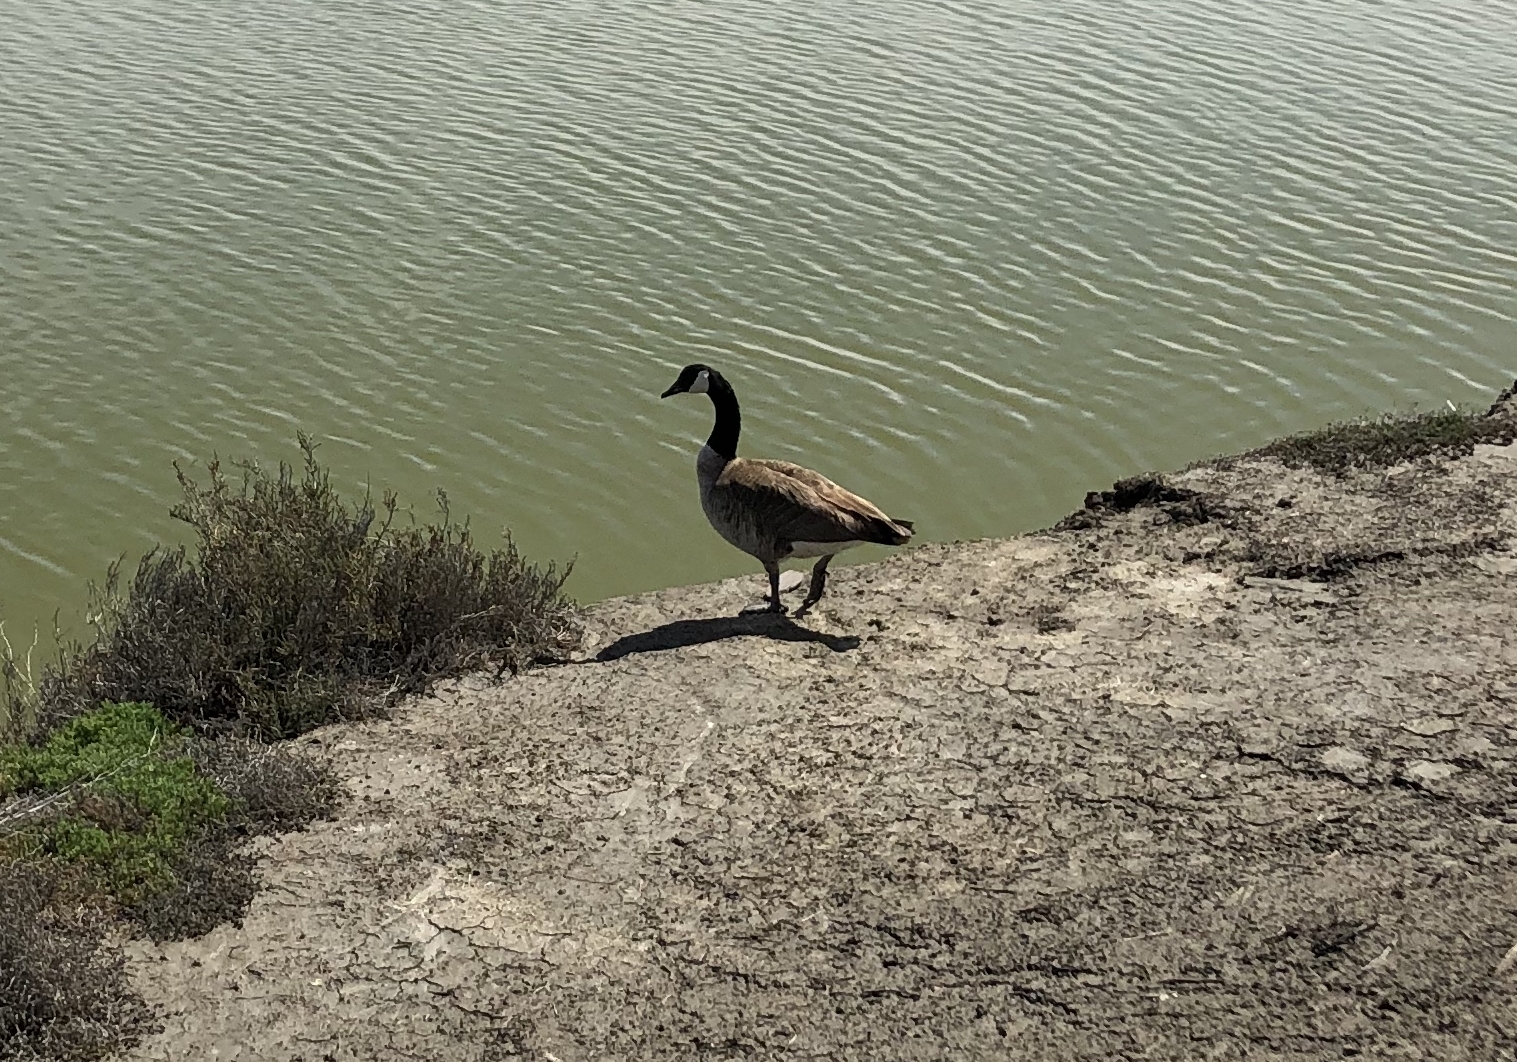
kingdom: Animalia
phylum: Chordata
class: Aves
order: Anseriformes
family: Anatidae
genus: Branta
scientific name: Branta canadensis
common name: Canada goose
